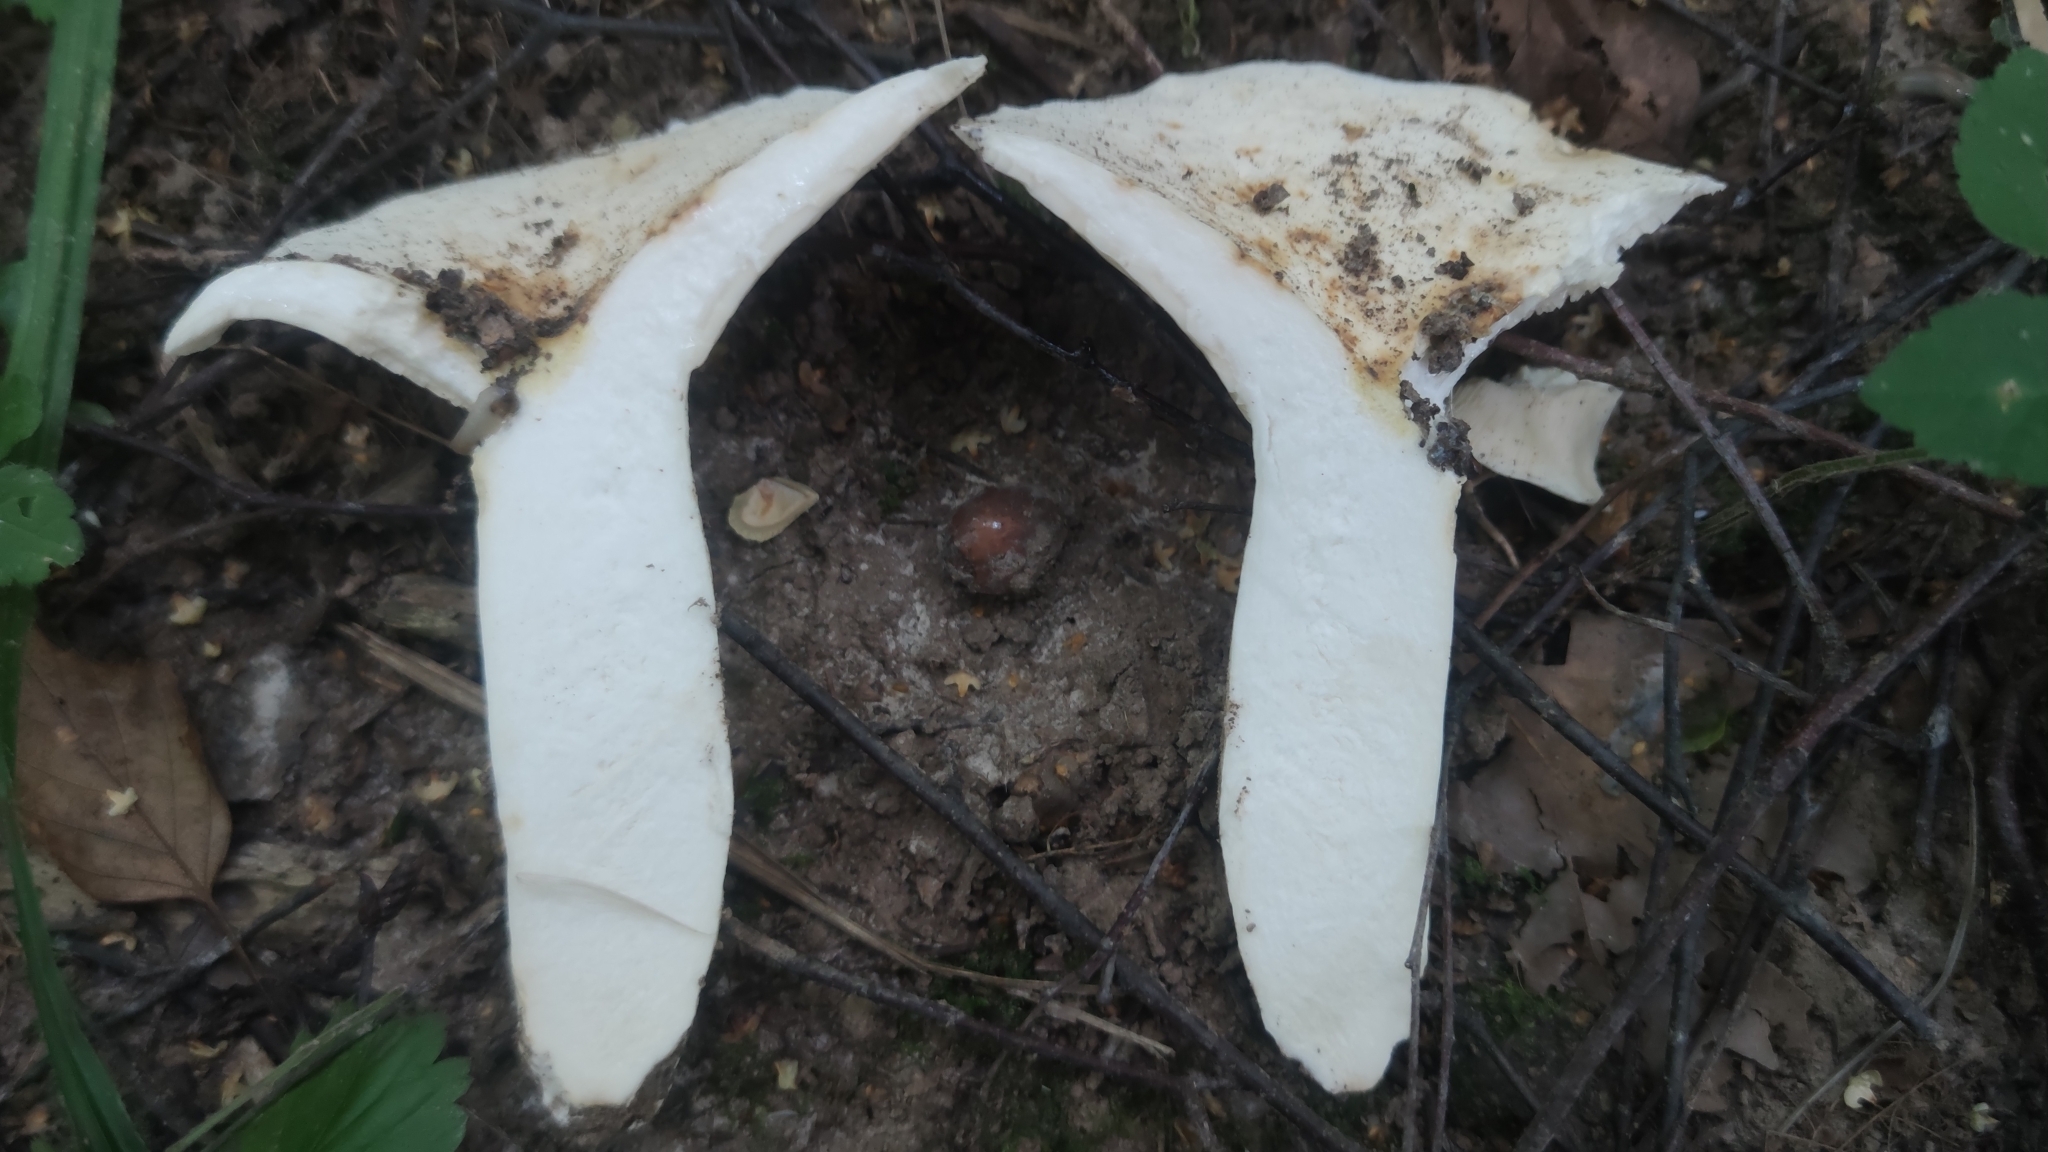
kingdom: Fungi
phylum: Basidiomycota
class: Agaricomycetes
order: Russulales
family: Russulaceae
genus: Lactifluus
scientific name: Lactifluus piperatus
